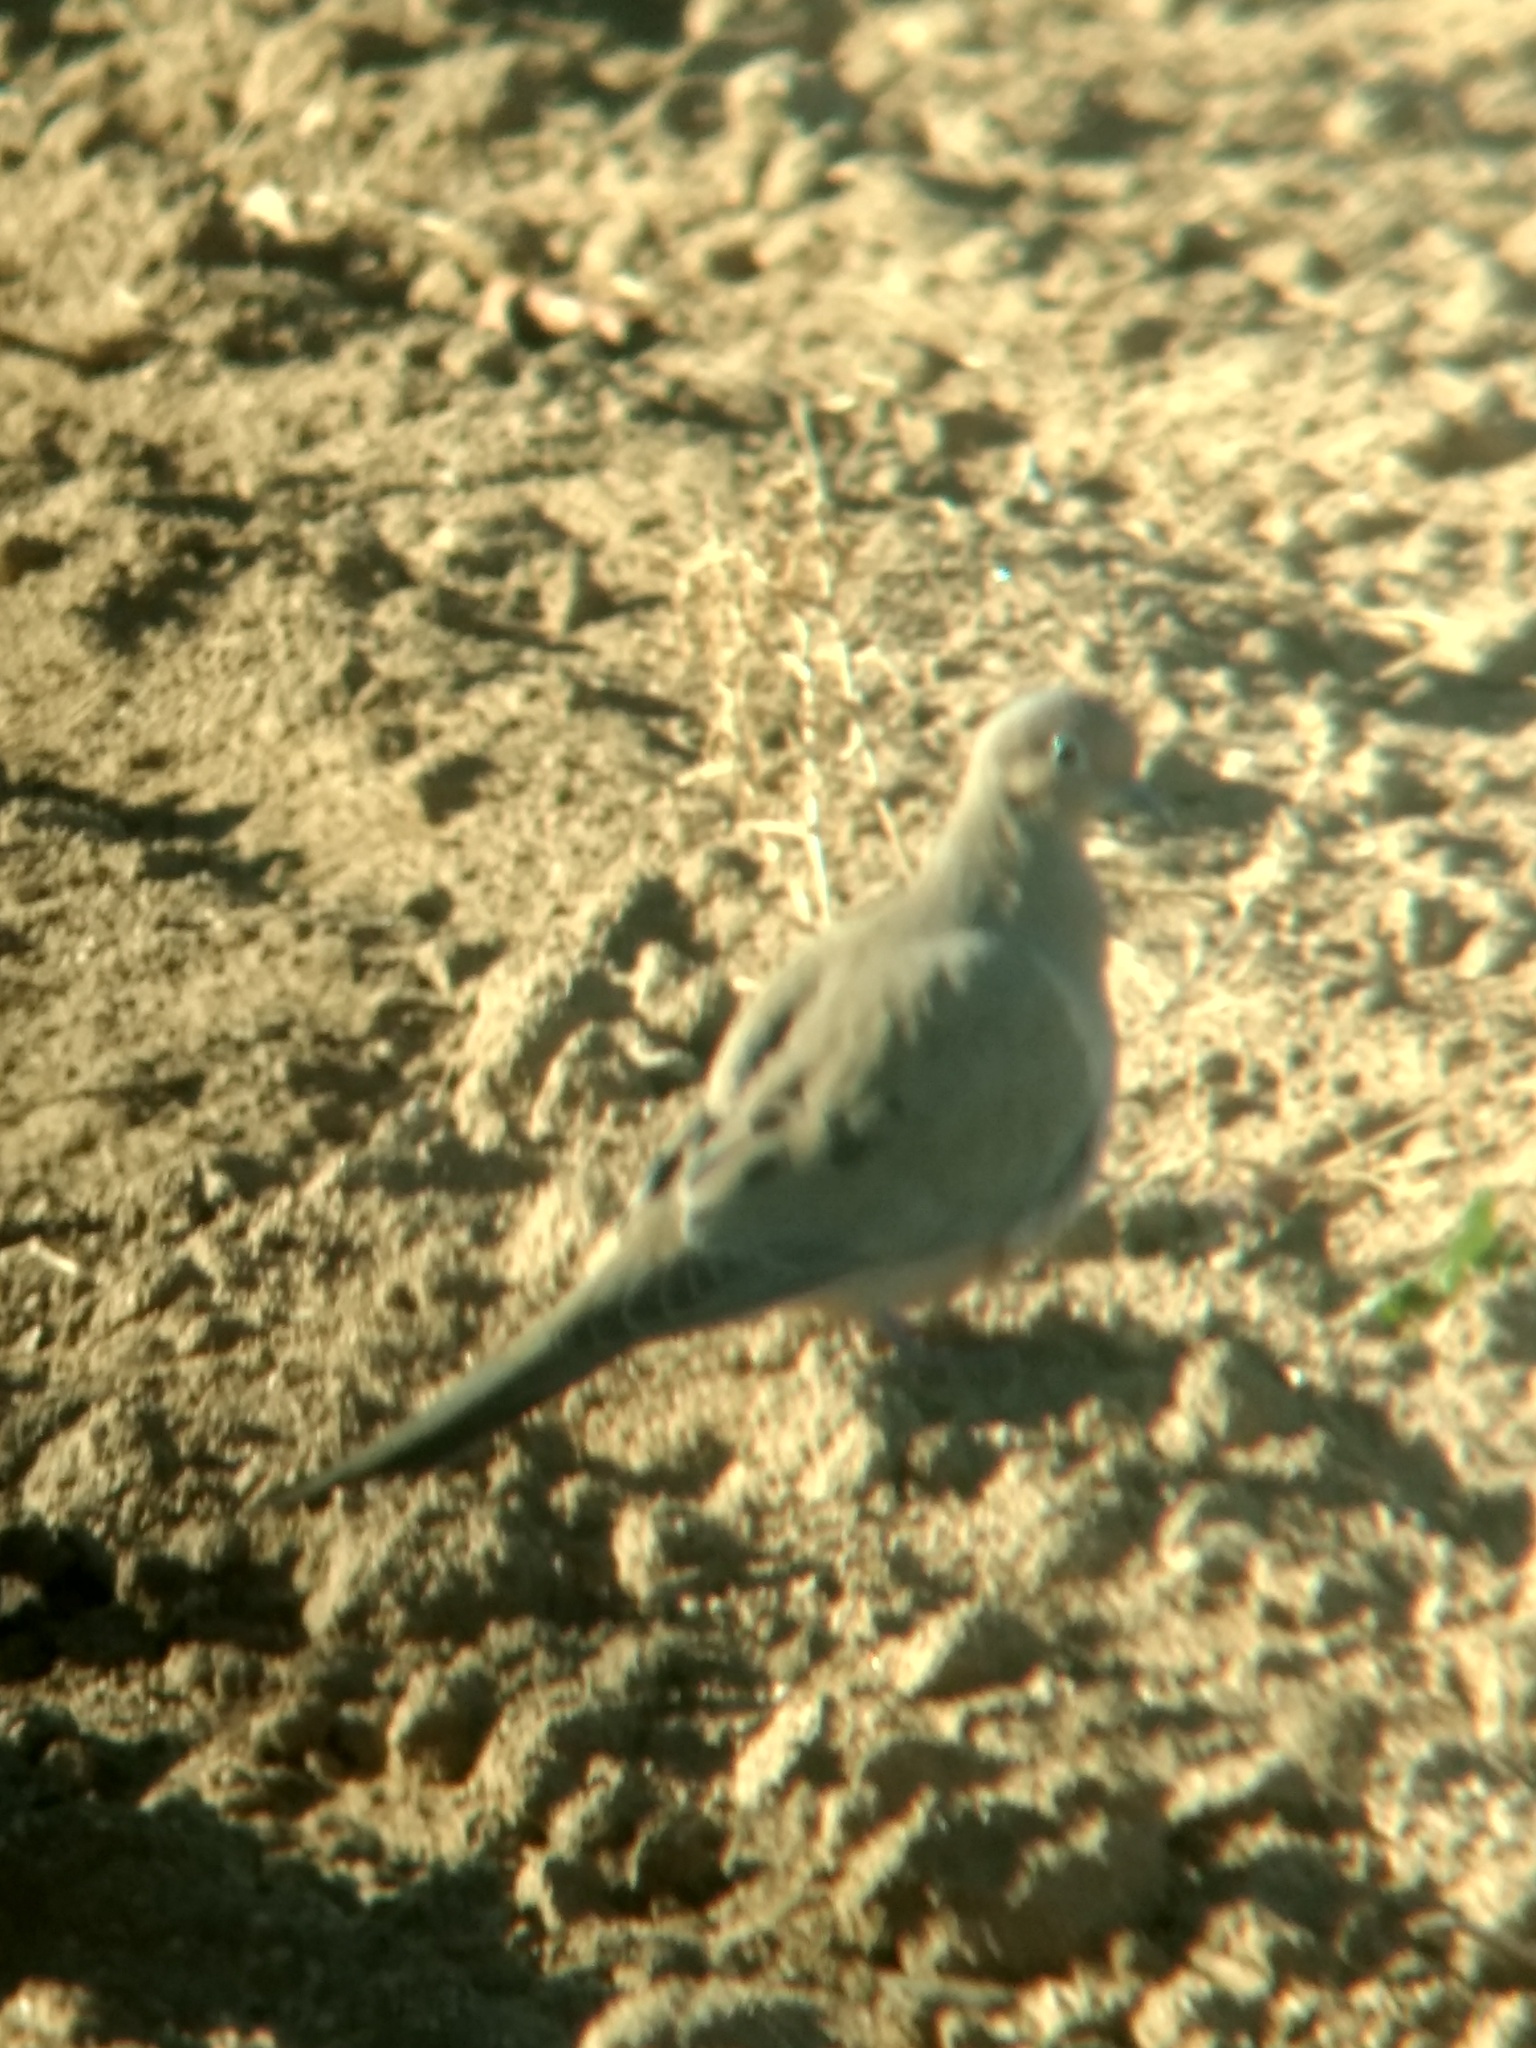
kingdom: Animalia
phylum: Chordata
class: Aves
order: Columbiformes
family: Columbidae
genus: Zenaida
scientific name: Zenaida macroura
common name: Mourning dove
